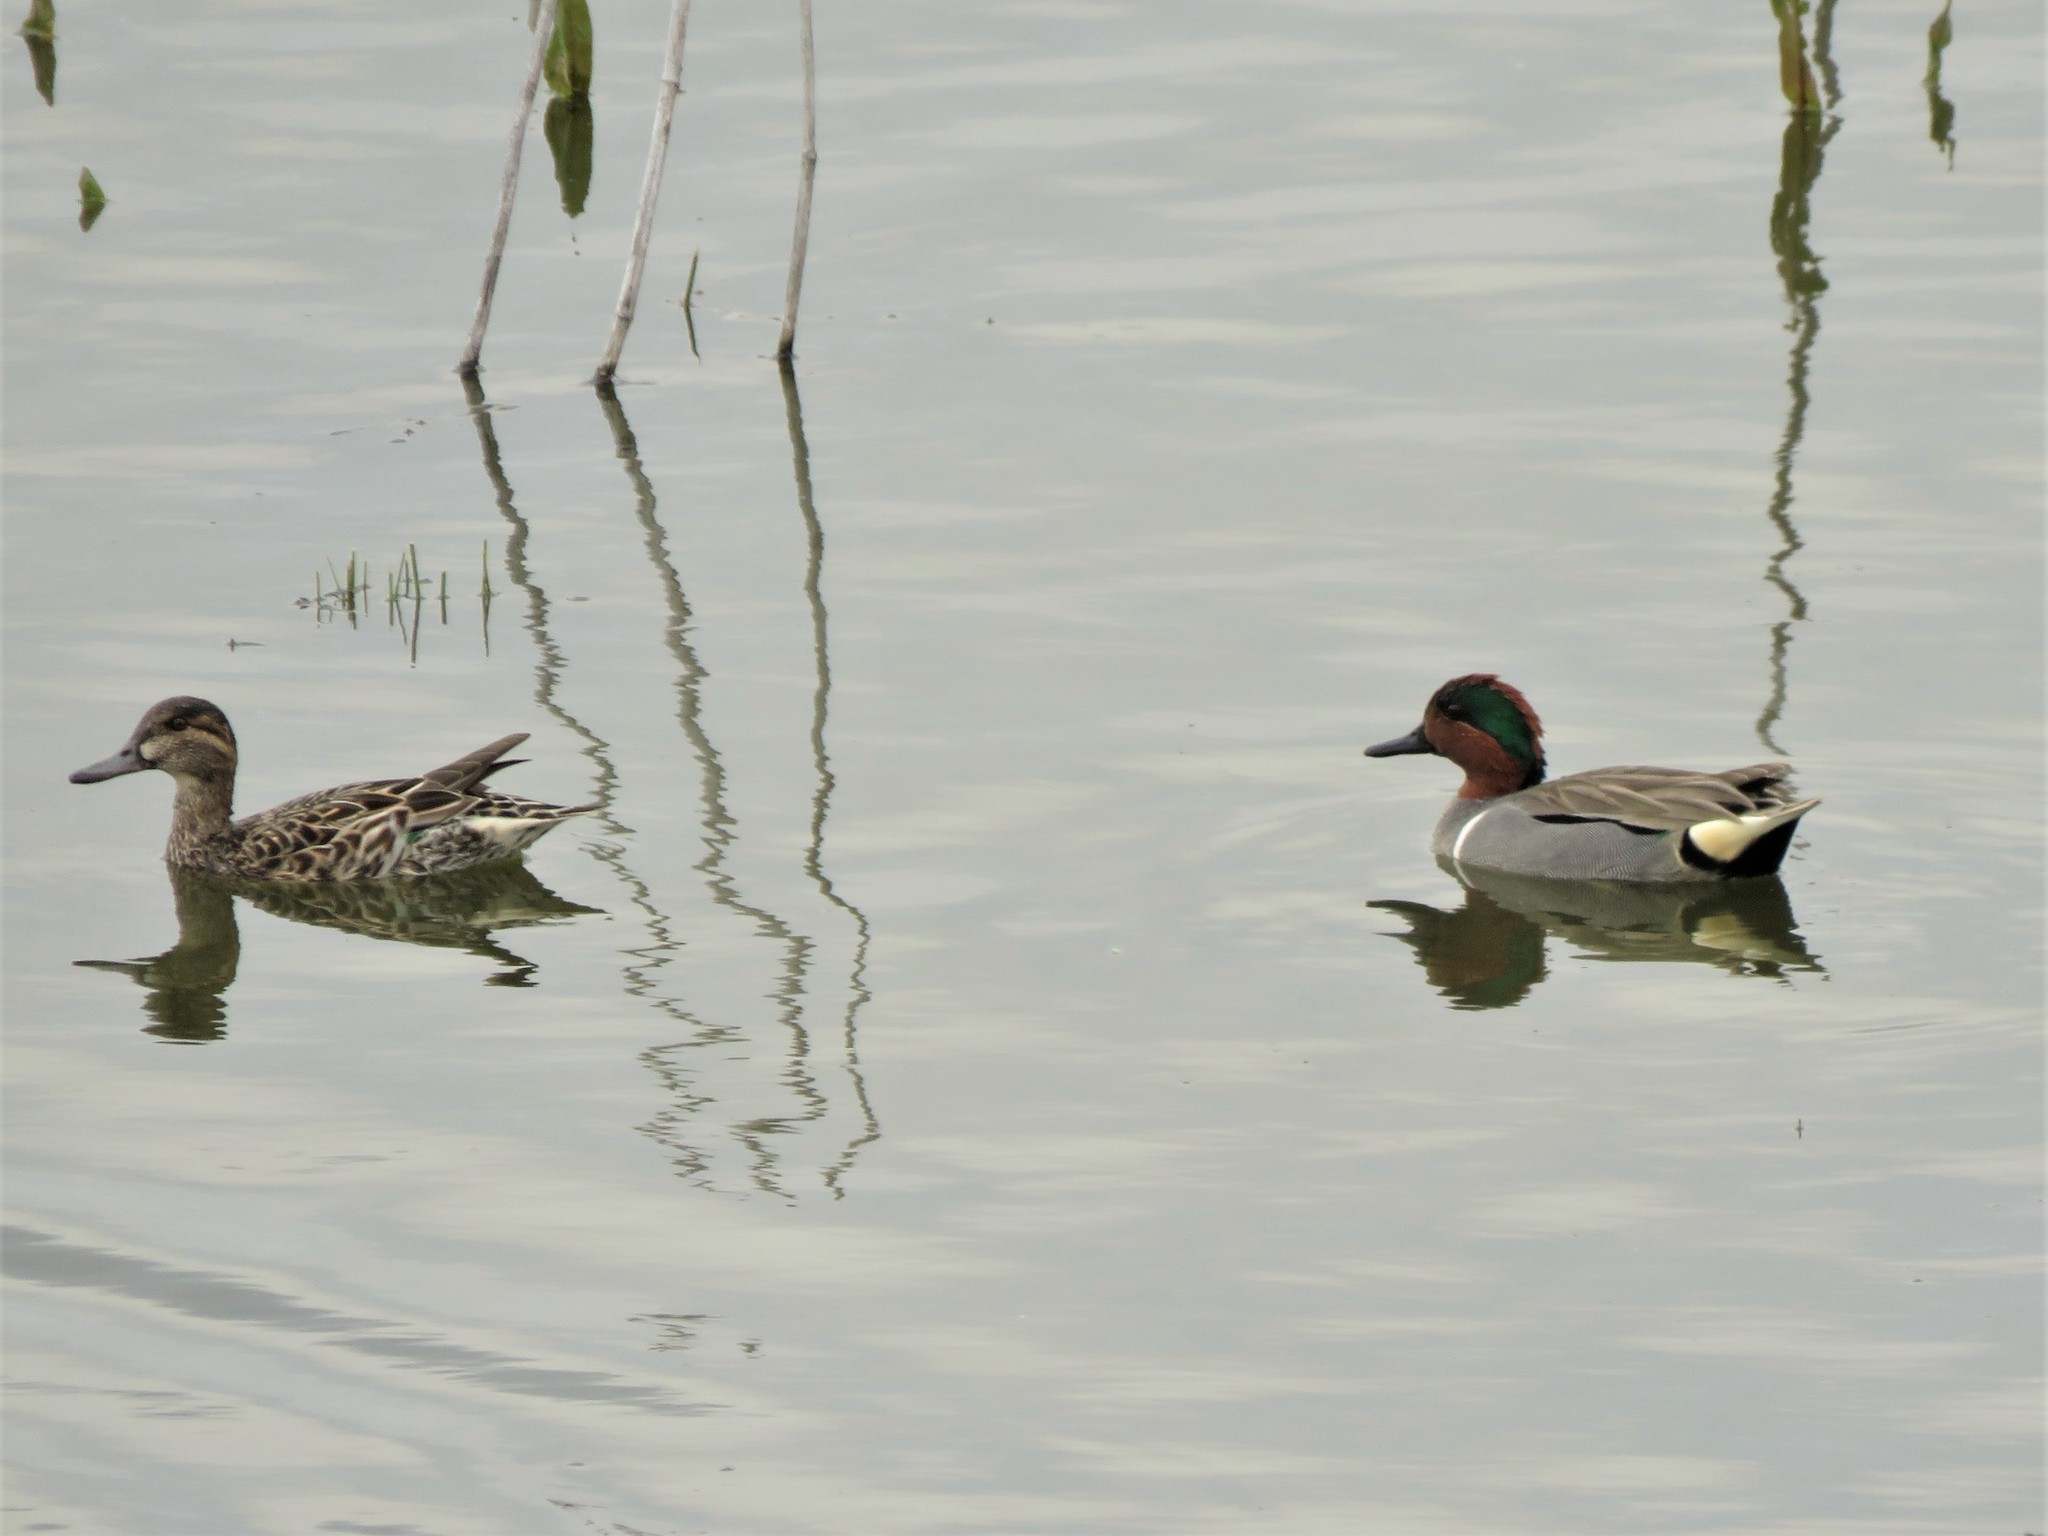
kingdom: Animalia
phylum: Chordata
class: Aves
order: Anseriformes
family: Anatidae
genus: Anas
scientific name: Anas crecca
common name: Eurasian teal
